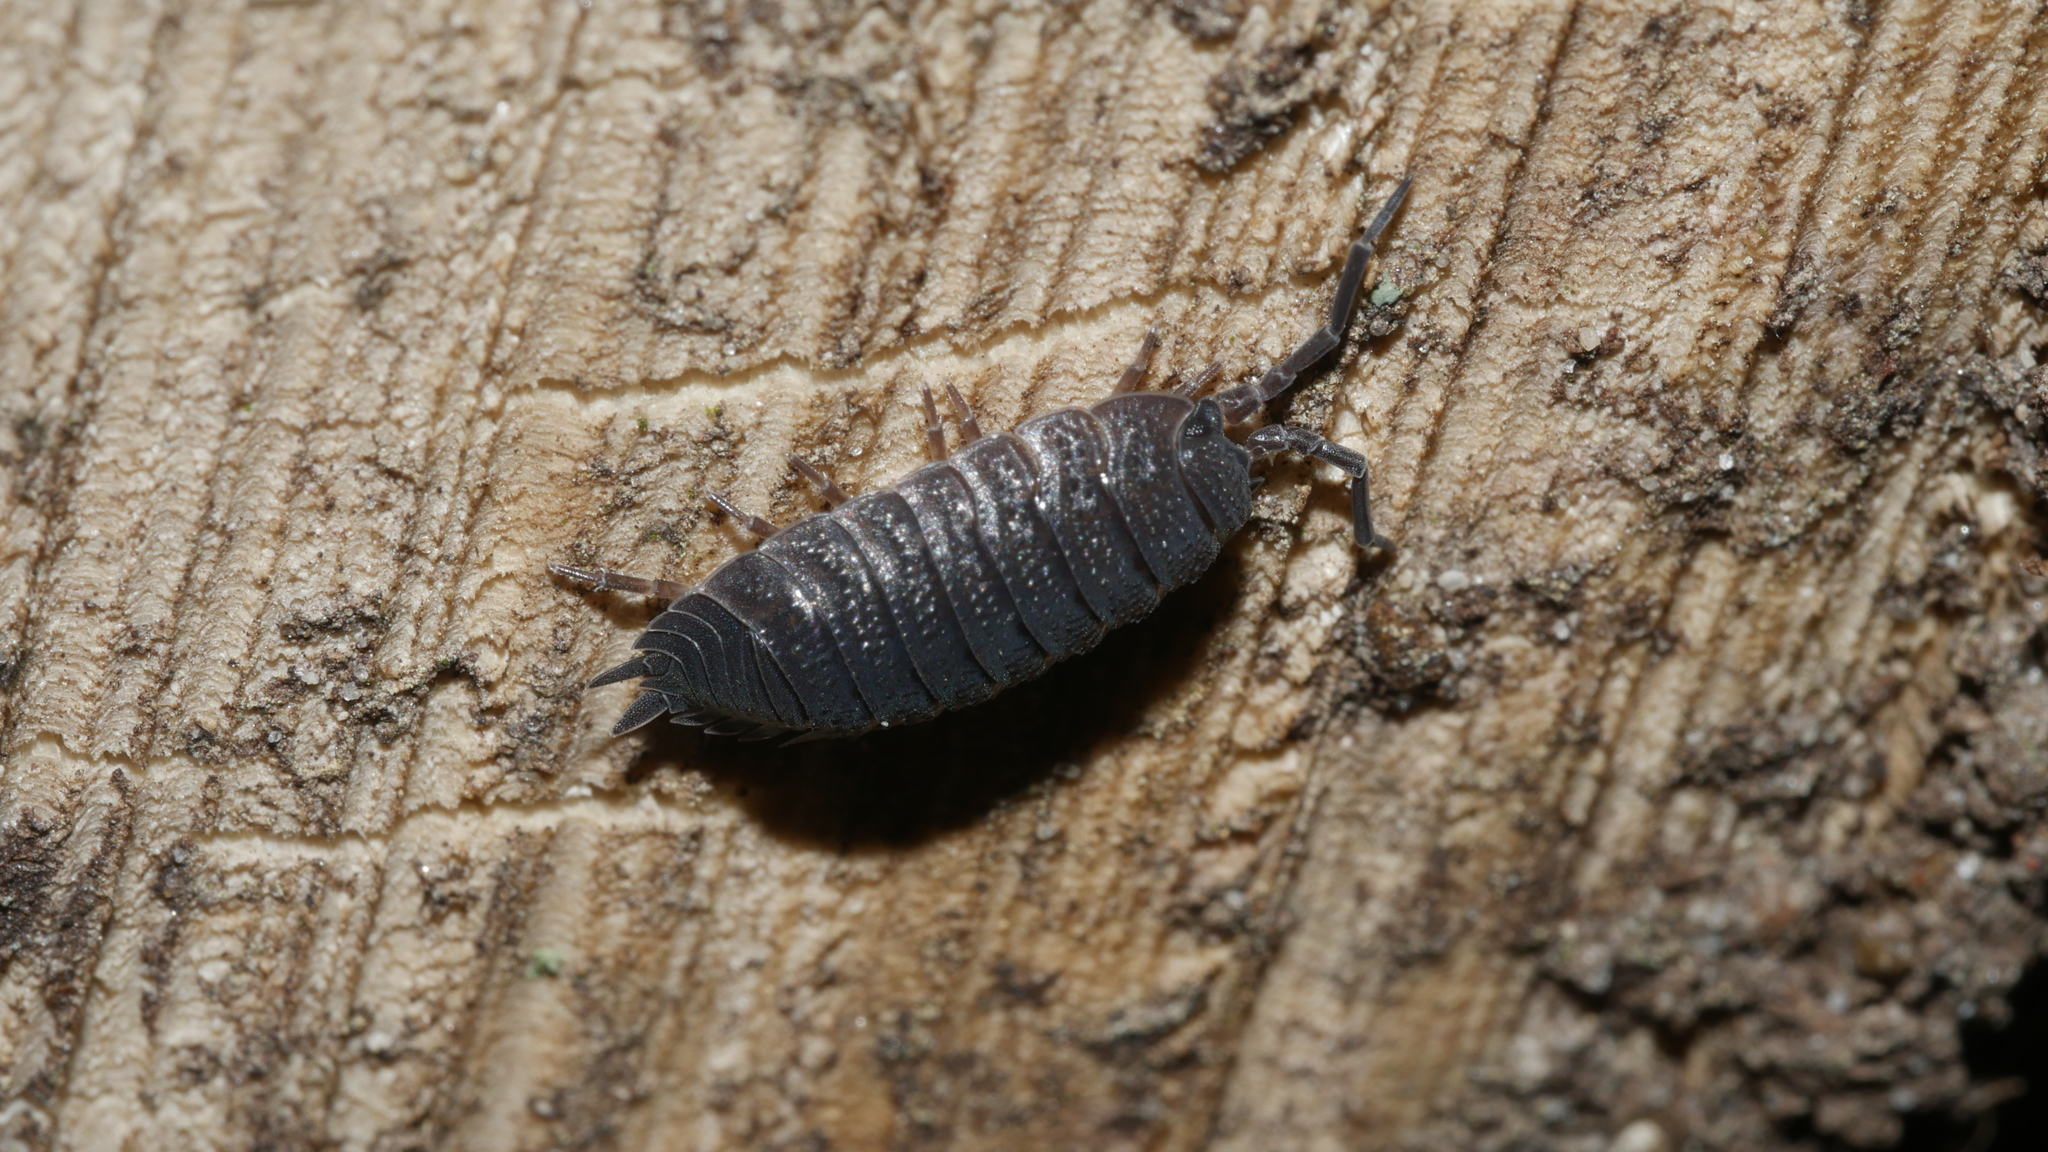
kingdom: Animalia
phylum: Arthropoda
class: Malacostraca
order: Isopoda
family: Porcellionidae
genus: Porcellio
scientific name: Porcellio scaber
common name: Common rough woodlouse
